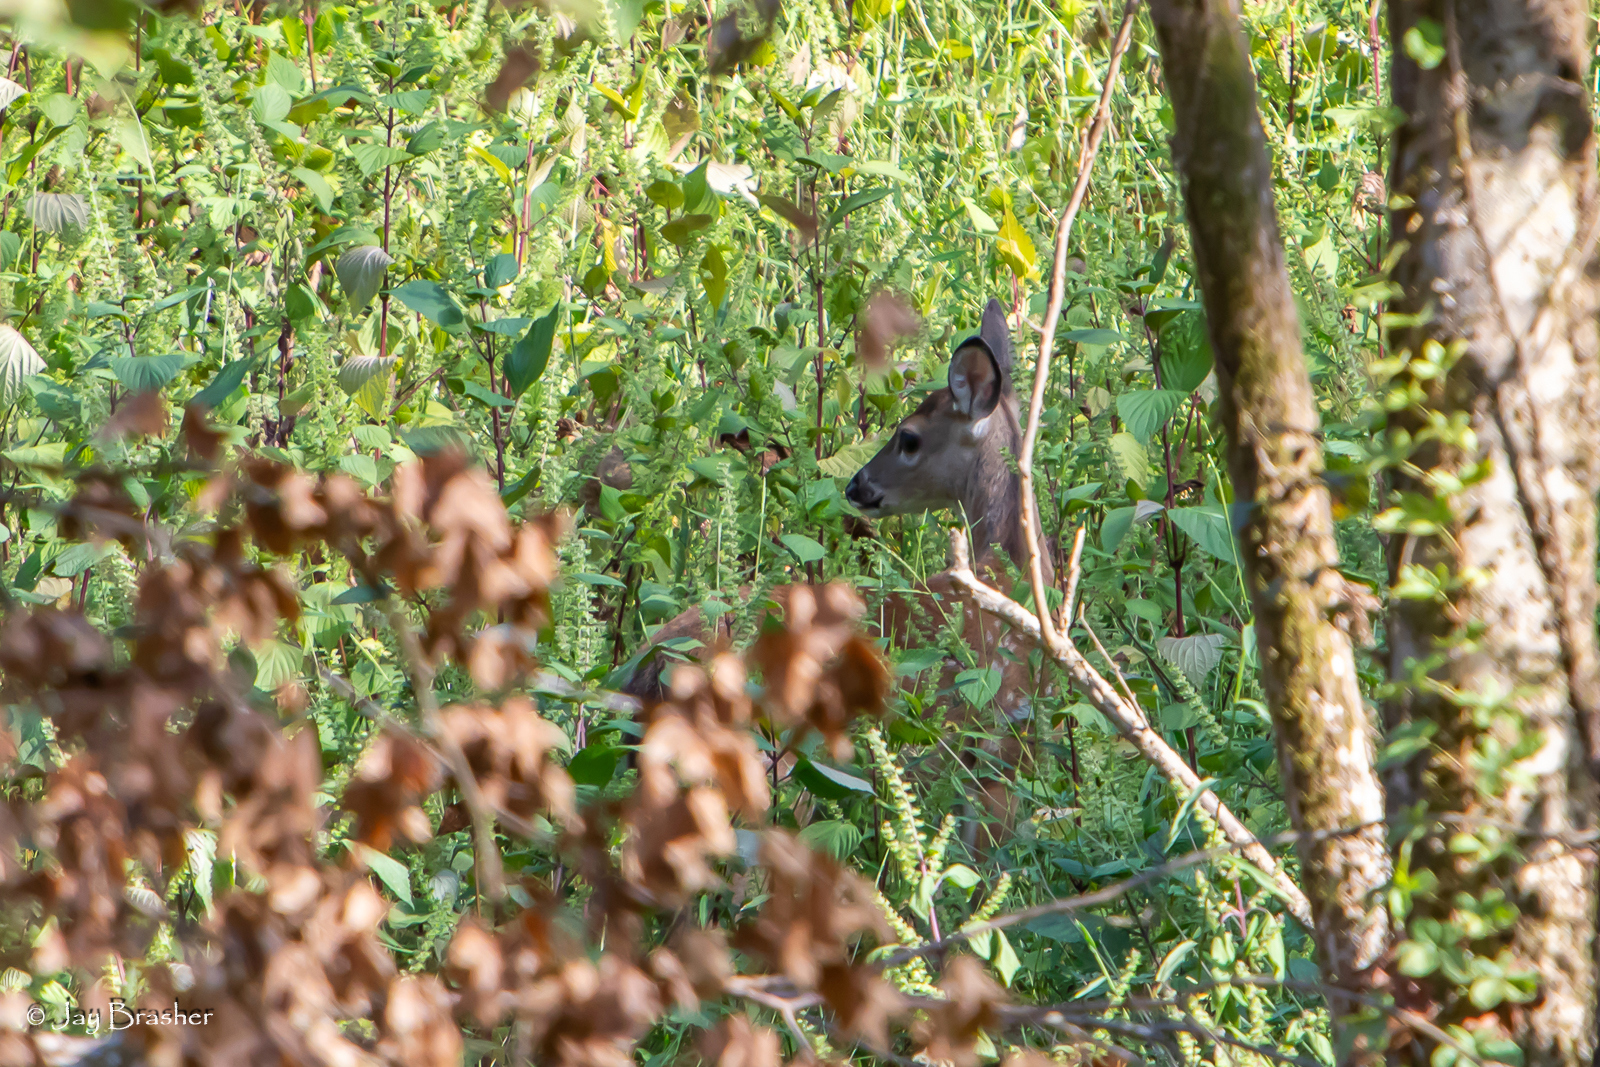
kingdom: Animalia
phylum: Chordata
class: Mammalia
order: Artiodactyla
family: Cervidae
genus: Odocoileus
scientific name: Odocoileus virginianus
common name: White-tailed deer
